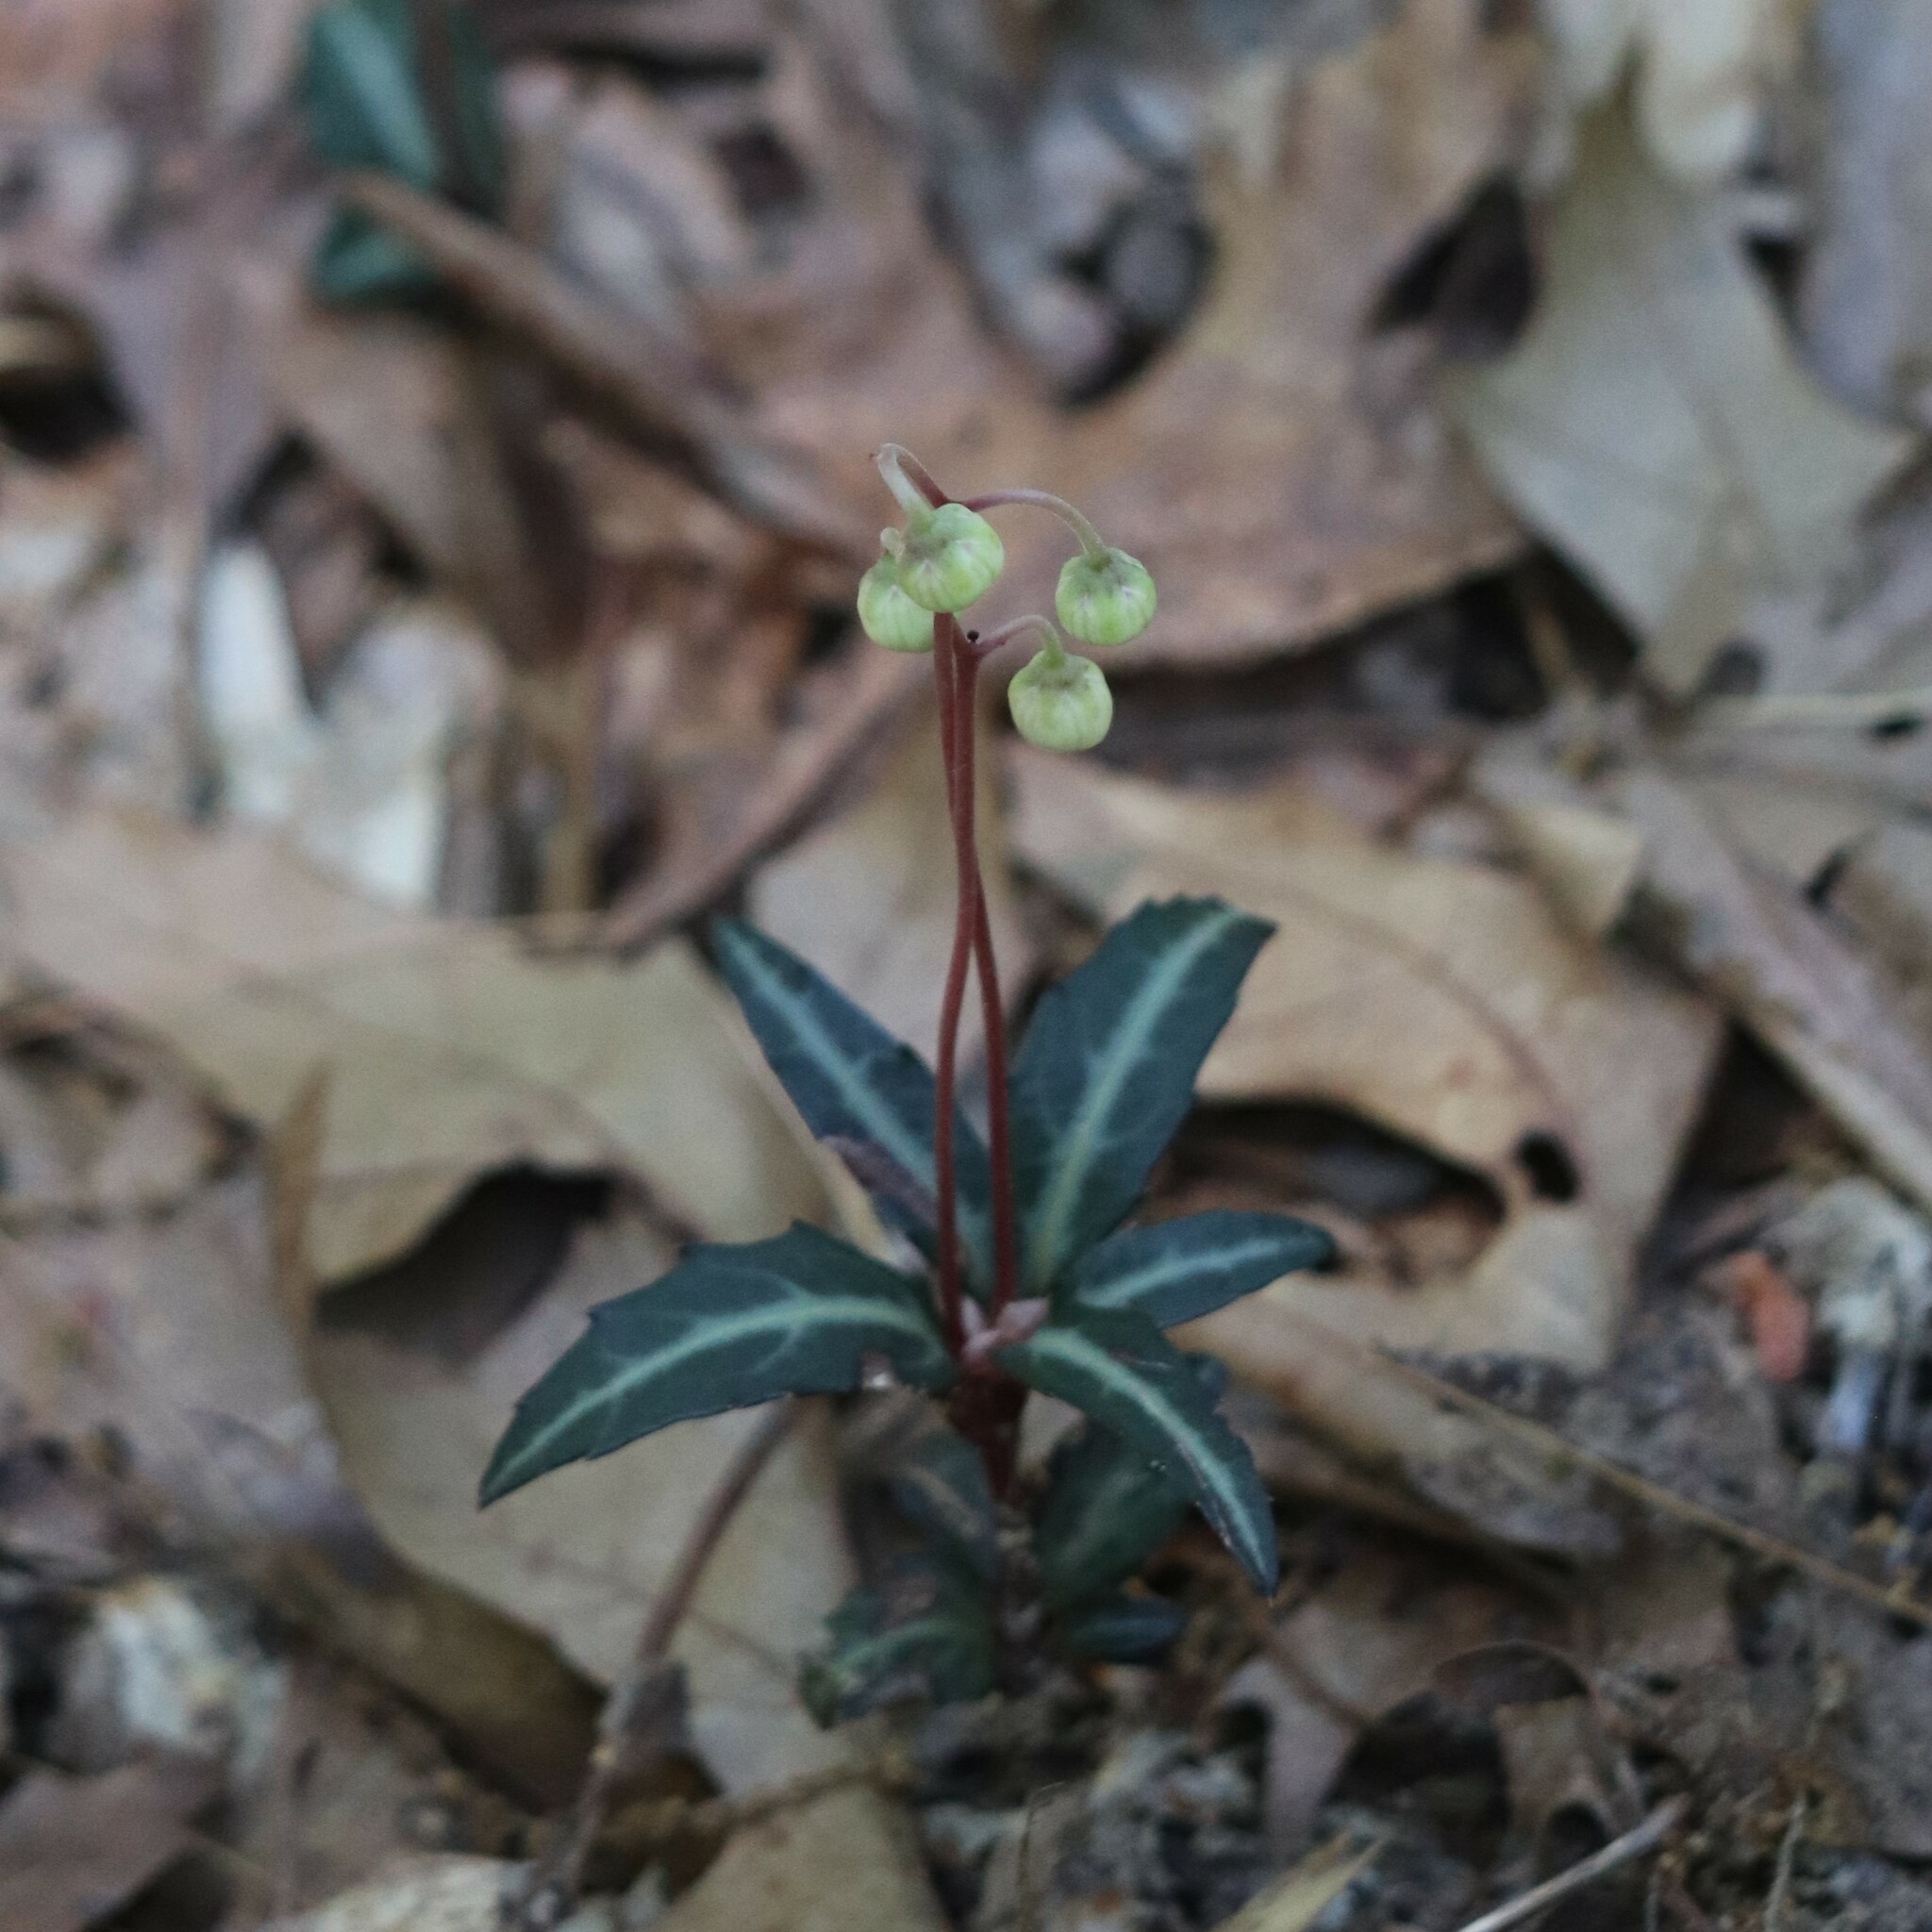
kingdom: Plantae
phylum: Tracheophyta
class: Magnoliopsida
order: Ericales
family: Ericaceae
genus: Chimaphila
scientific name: Chimaphila maculata
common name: Spotted pipsissewa
